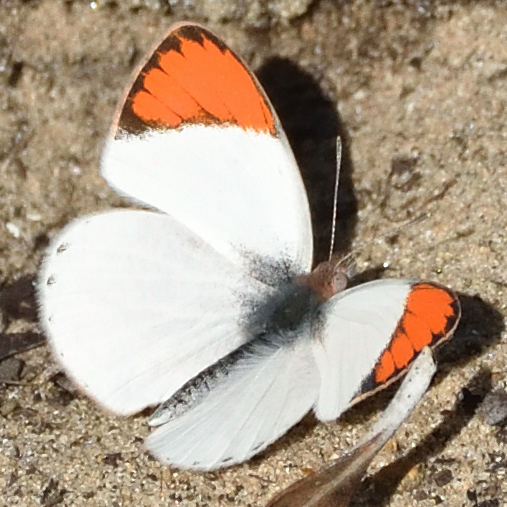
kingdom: Animalia
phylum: Arthropoda
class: Insecta
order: Lepidoptera
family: Pieridae
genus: Colotis
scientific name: Colotis euippe
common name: Round-winged orange tip
